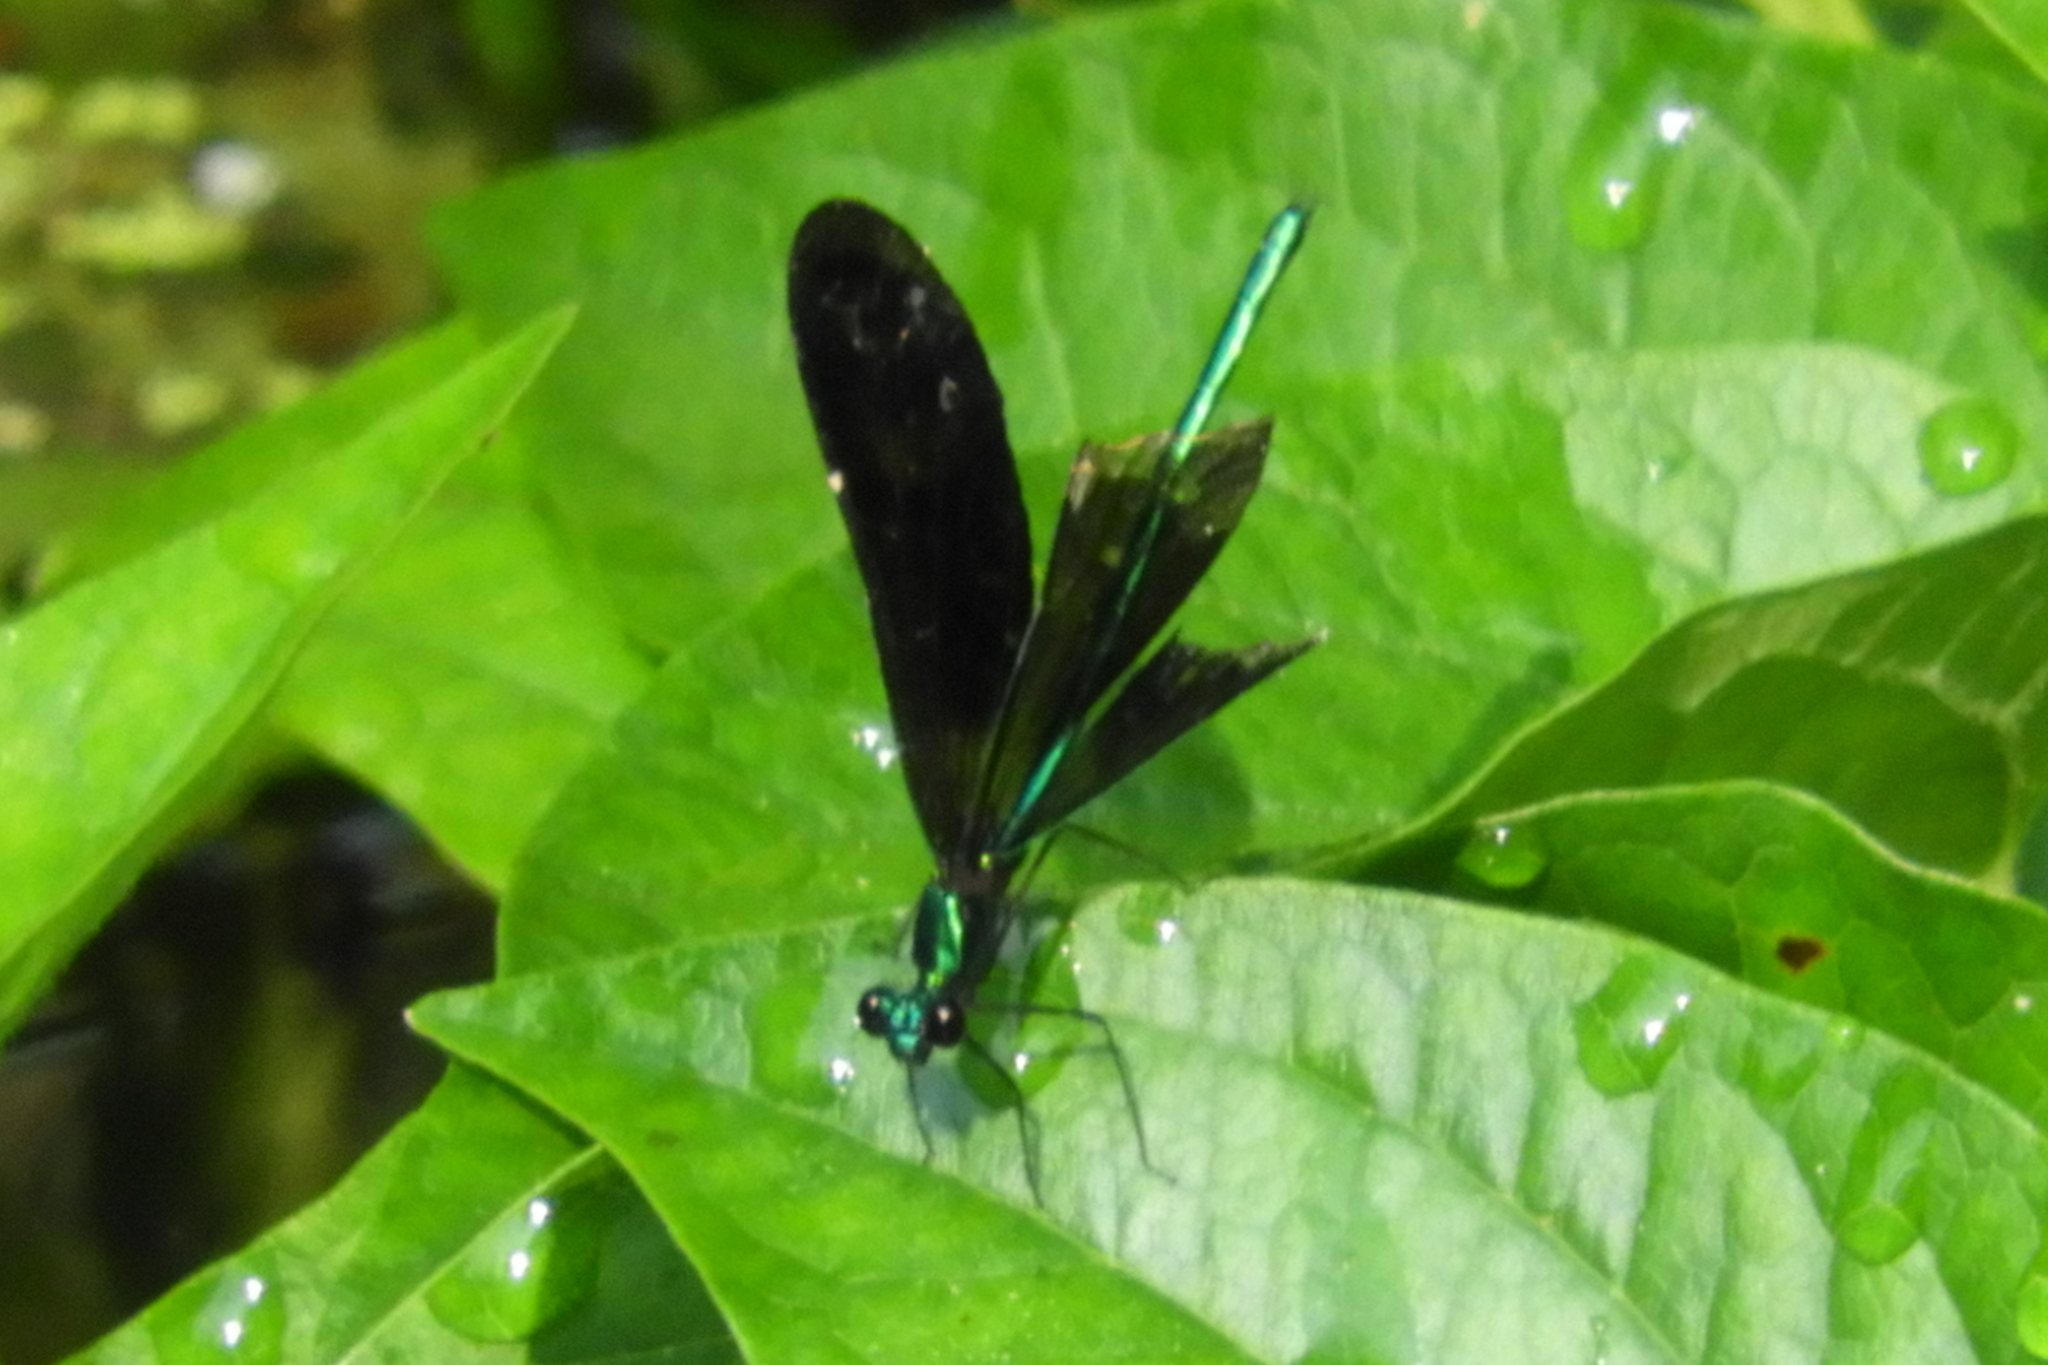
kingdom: Animalia
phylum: Arthropoda
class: Insecta
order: Odonata
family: Calopterygidae
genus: Calopteryx
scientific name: Calopteryx maculata
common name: Ebony jewelwing
